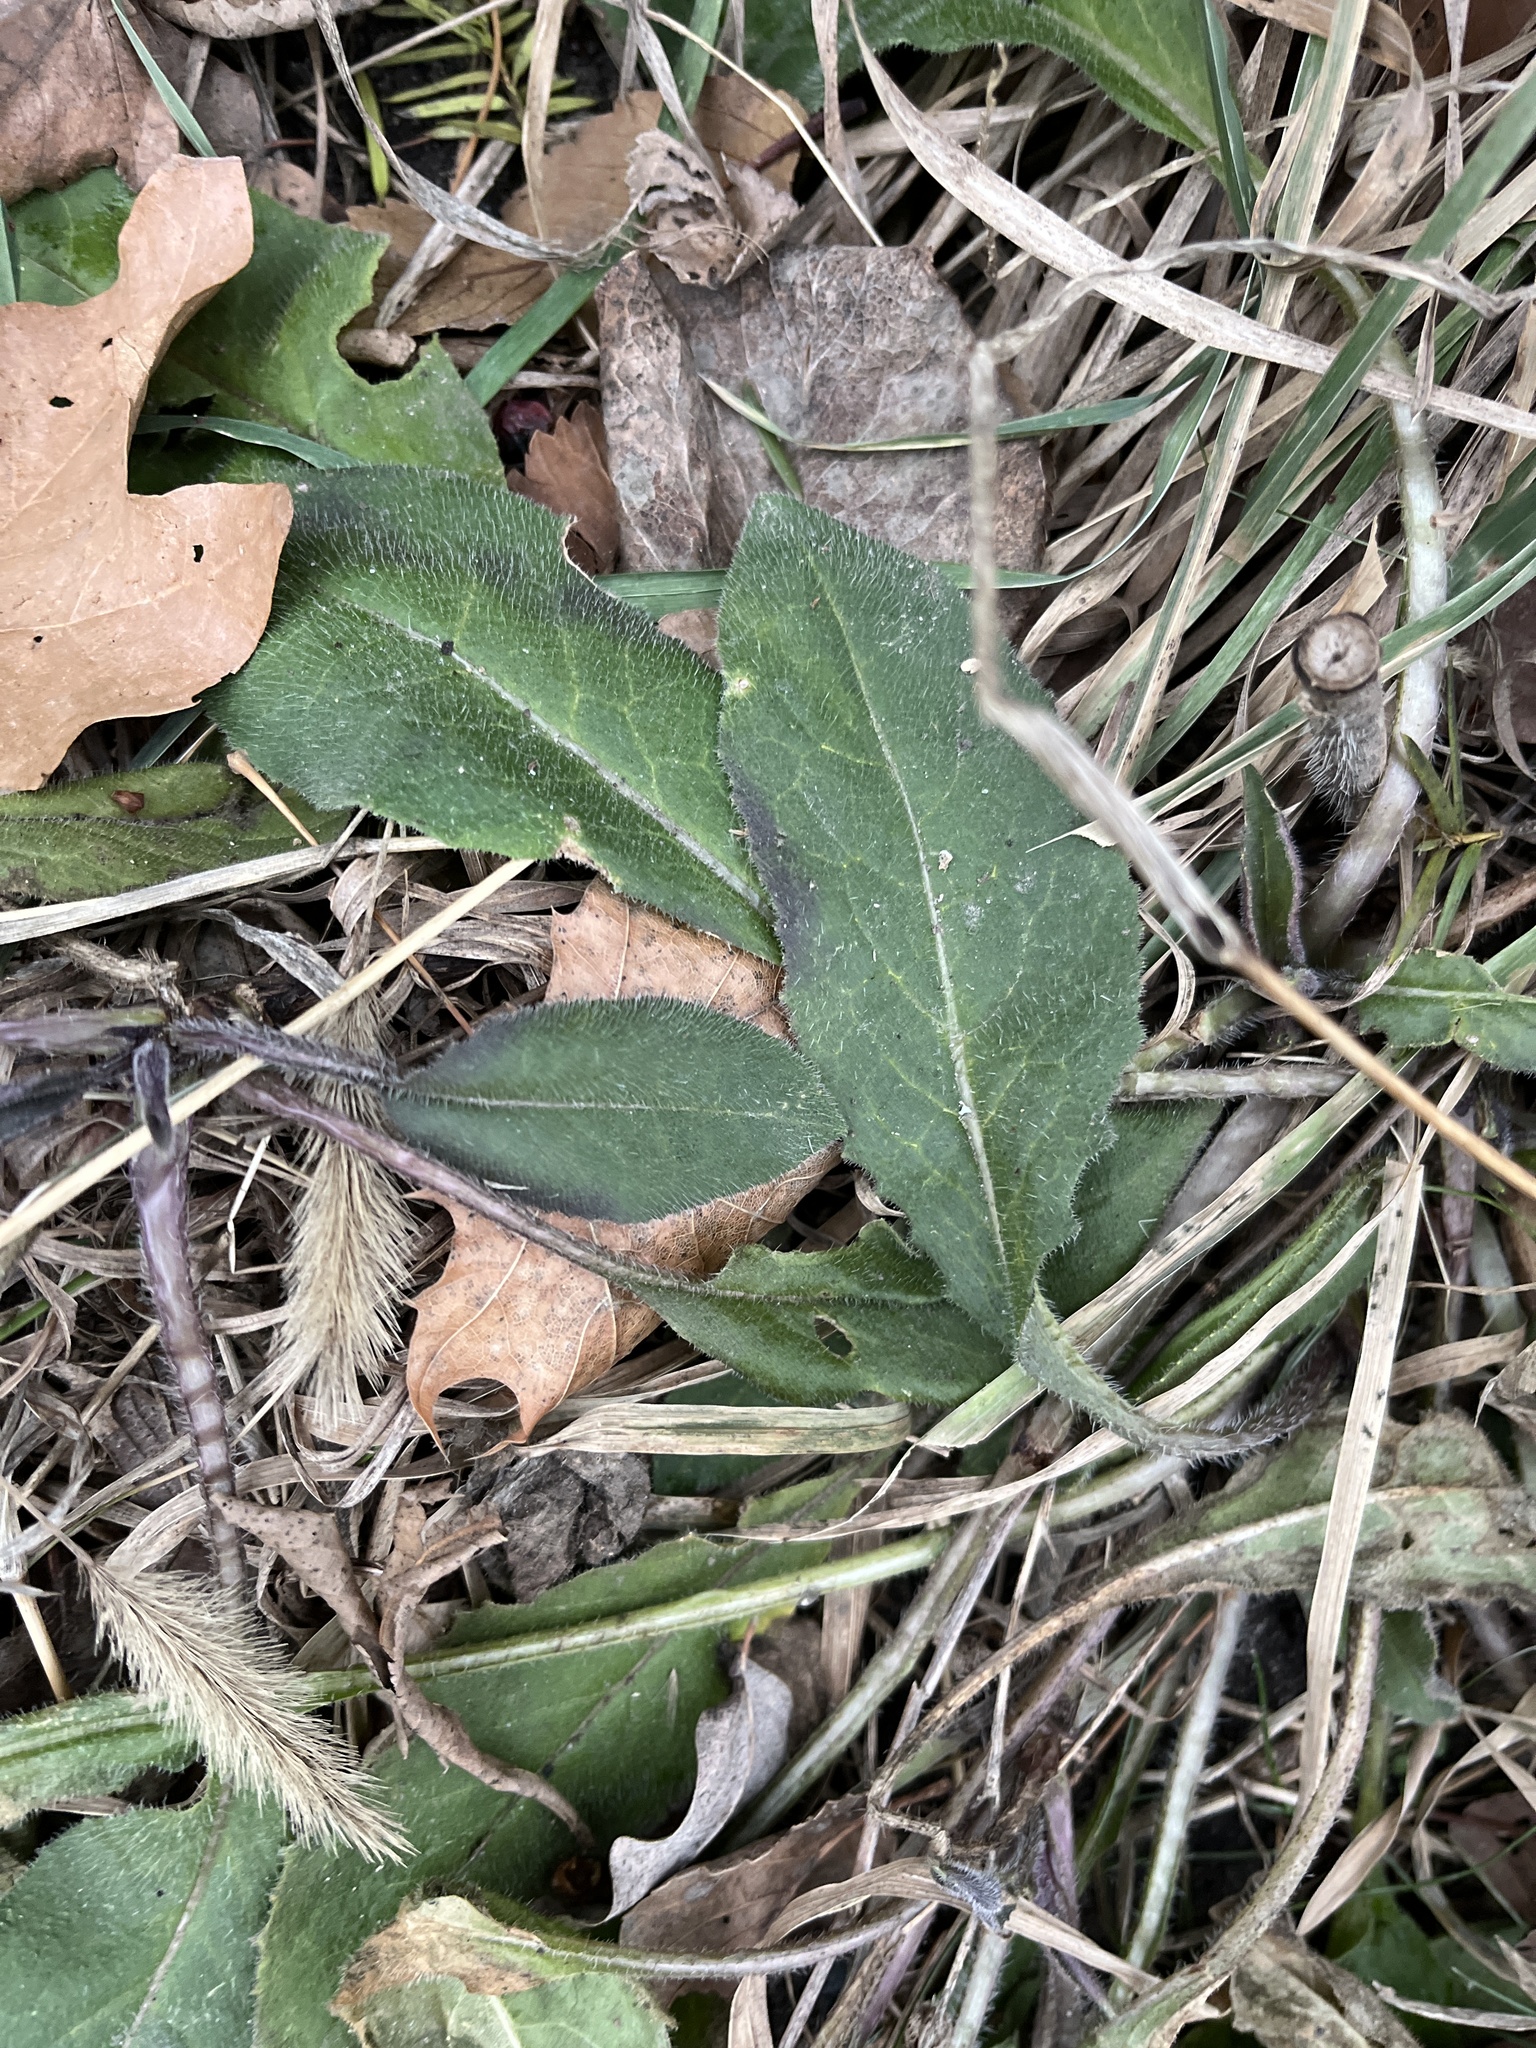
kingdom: Plantae
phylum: Tracheophyta
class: Magnoliopsida
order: Brassicales
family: Brassicaceae
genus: Hesperis
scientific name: Hesperis matronalis
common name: Dame's-violet
